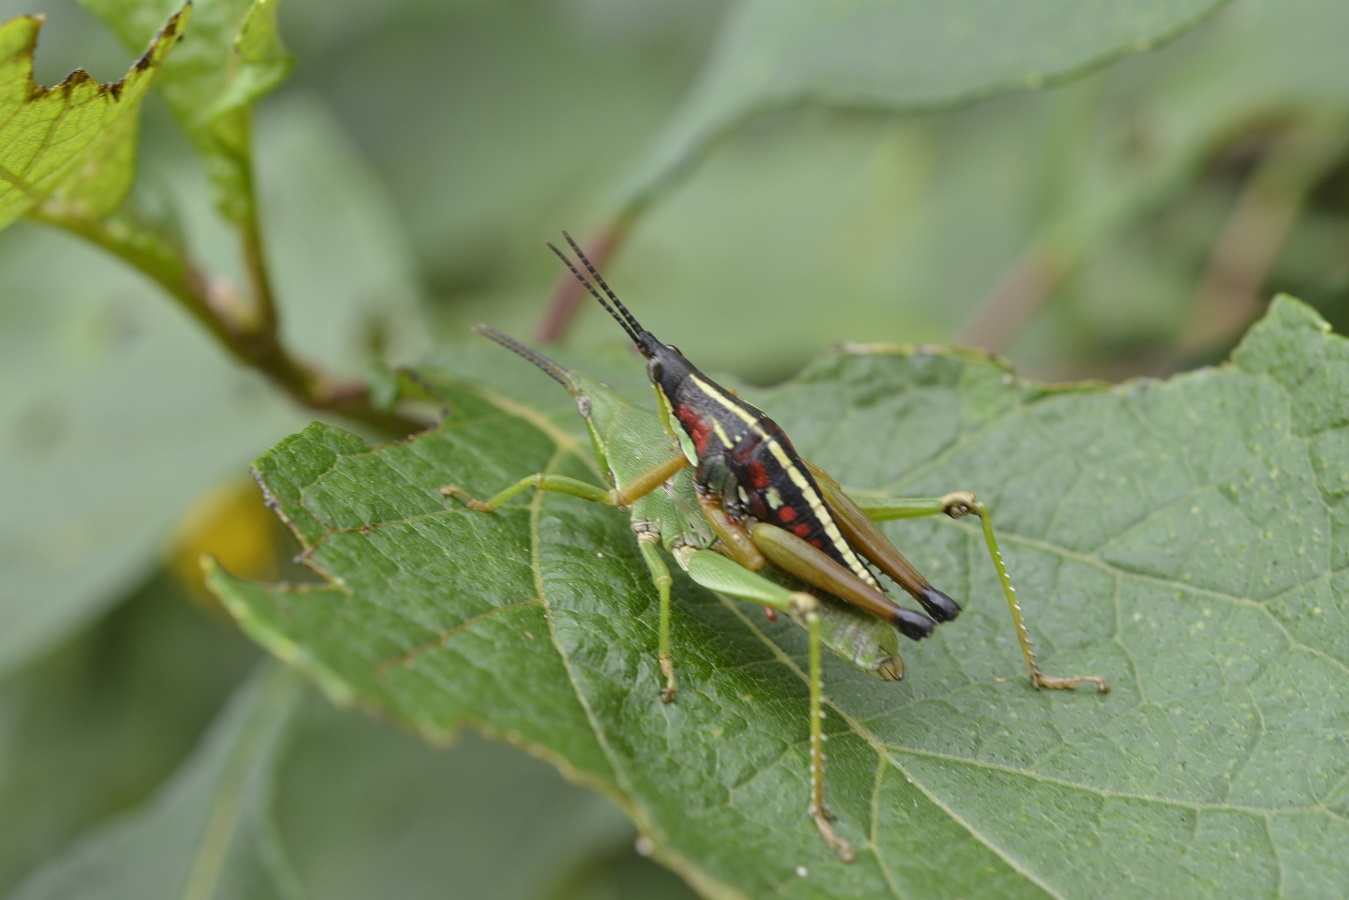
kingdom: Animalia
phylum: Arthropoda
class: Insecta
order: Orthoptera
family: Pyrgomorphidae
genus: Sphenarium
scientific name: Sphenarium histrio
